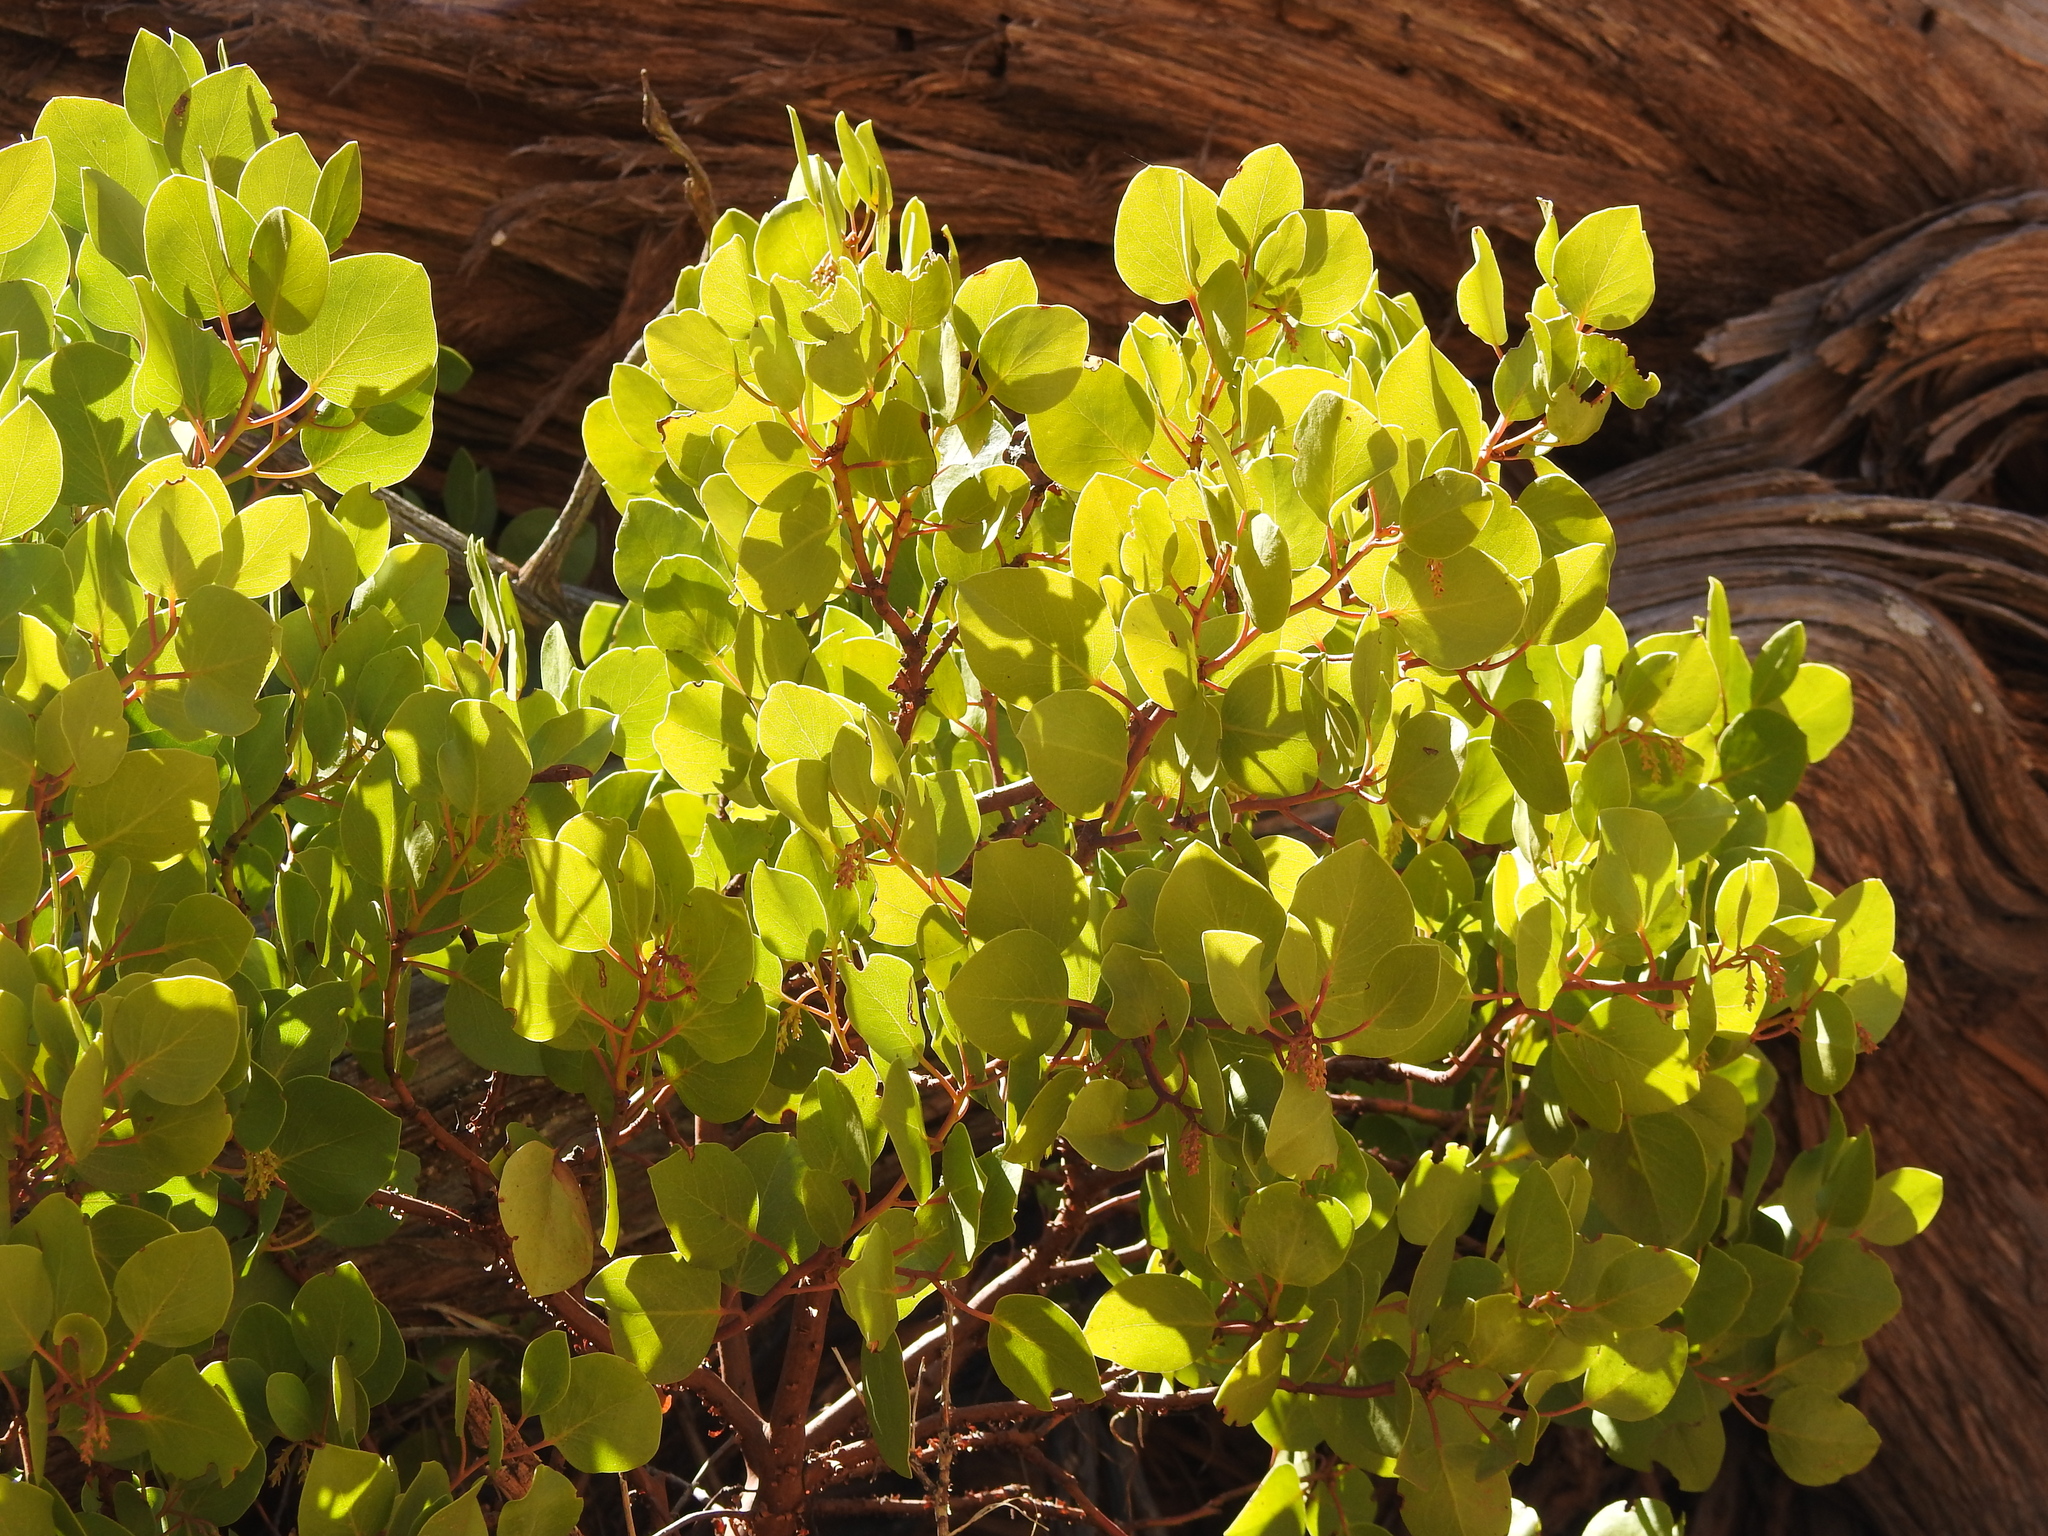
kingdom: Plantae
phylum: Tracheophyta
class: Magnoliopsida
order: Ericales
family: Ericaceae
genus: Arctostaphylos
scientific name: Arctostaphylos patula
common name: Green-leaf manzanita
